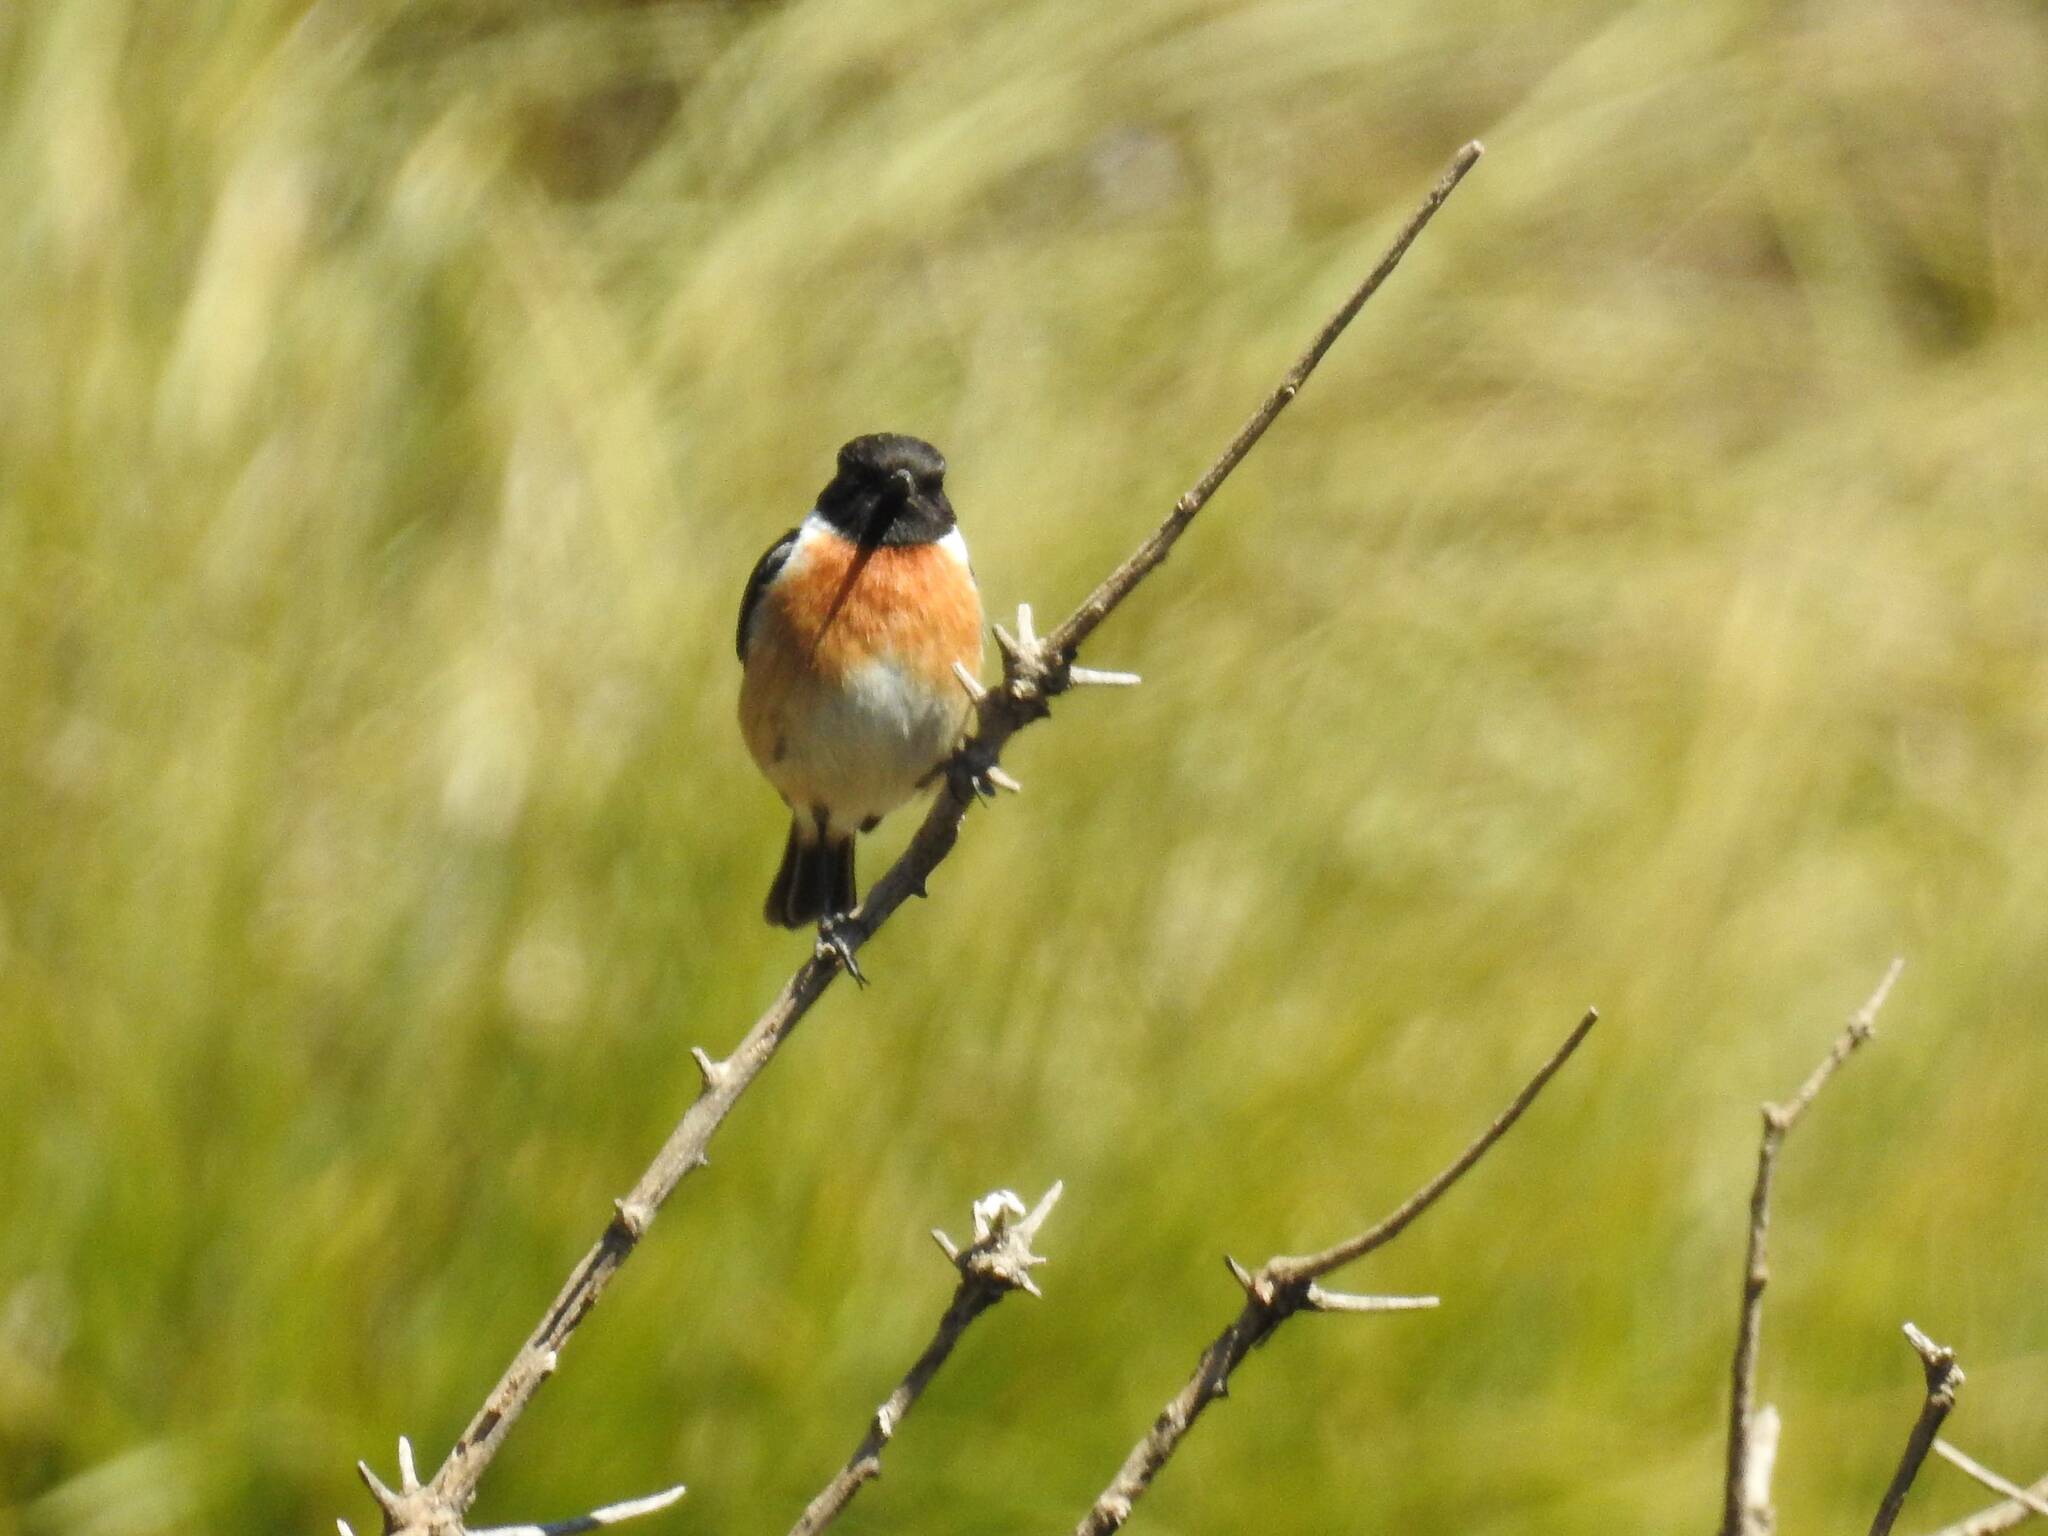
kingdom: Animalia
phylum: Chordata
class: Aves
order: Passeriformes
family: Muscicapidae
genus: Saxicola
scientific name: Saxicola rubicola
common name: European stonechat
